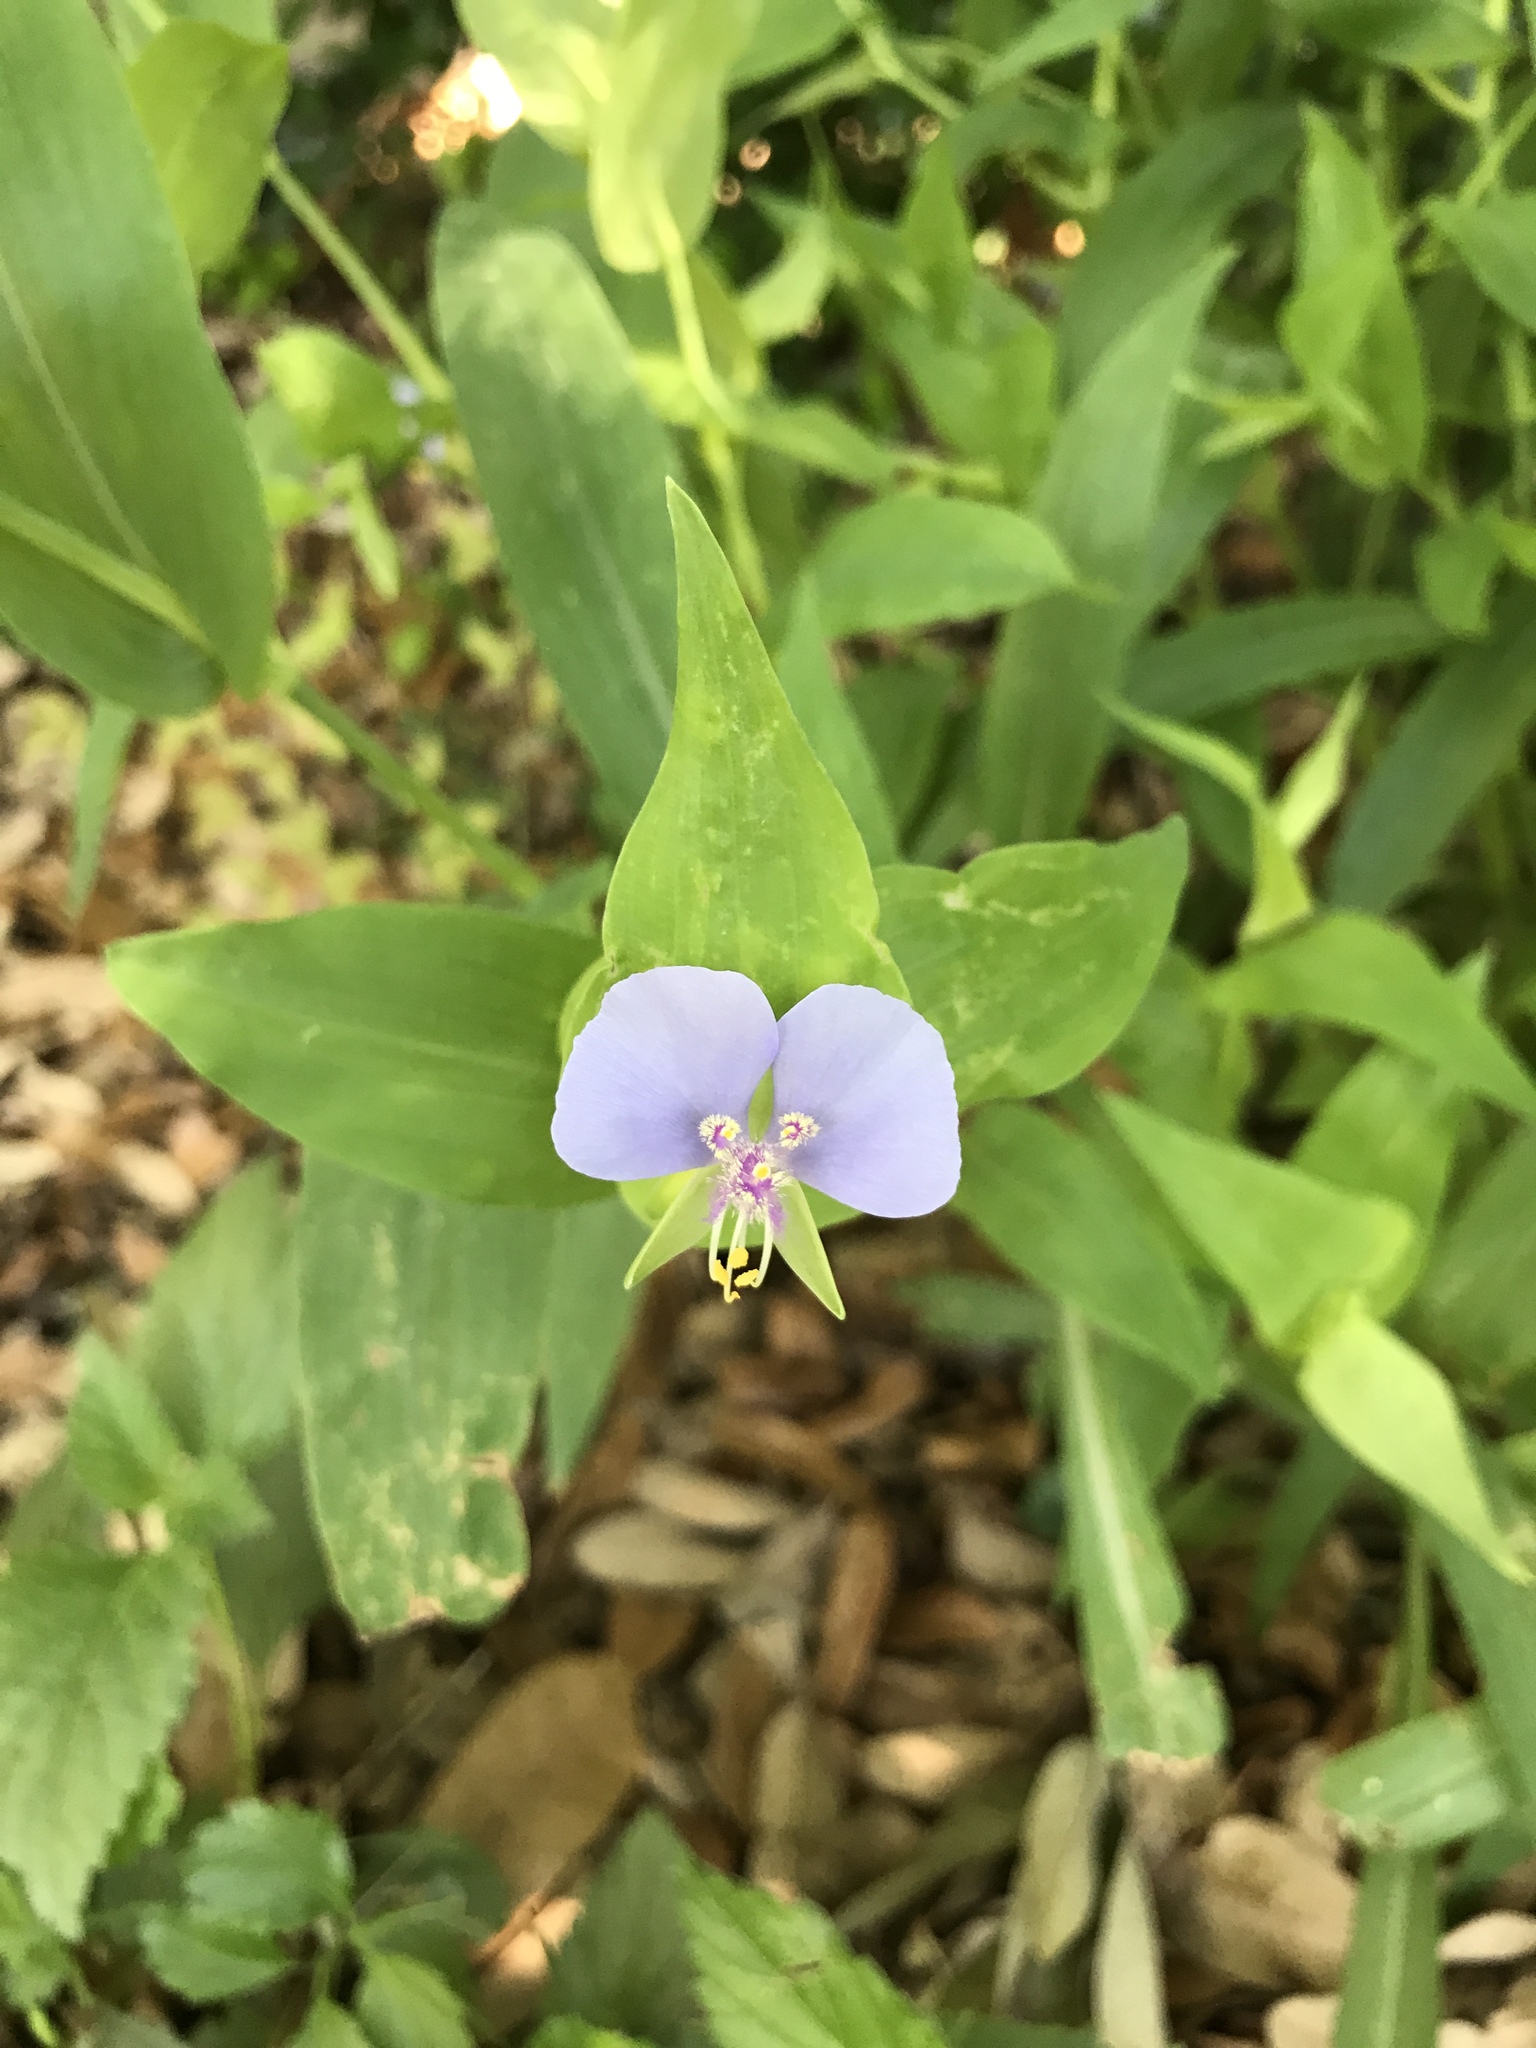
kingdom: Plantae
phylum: Tracheophyta
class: Liliopsida
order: Commelinales
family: Commelinaceae
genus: Tinantia
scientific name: Tinantia anomala
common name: False dayflower
